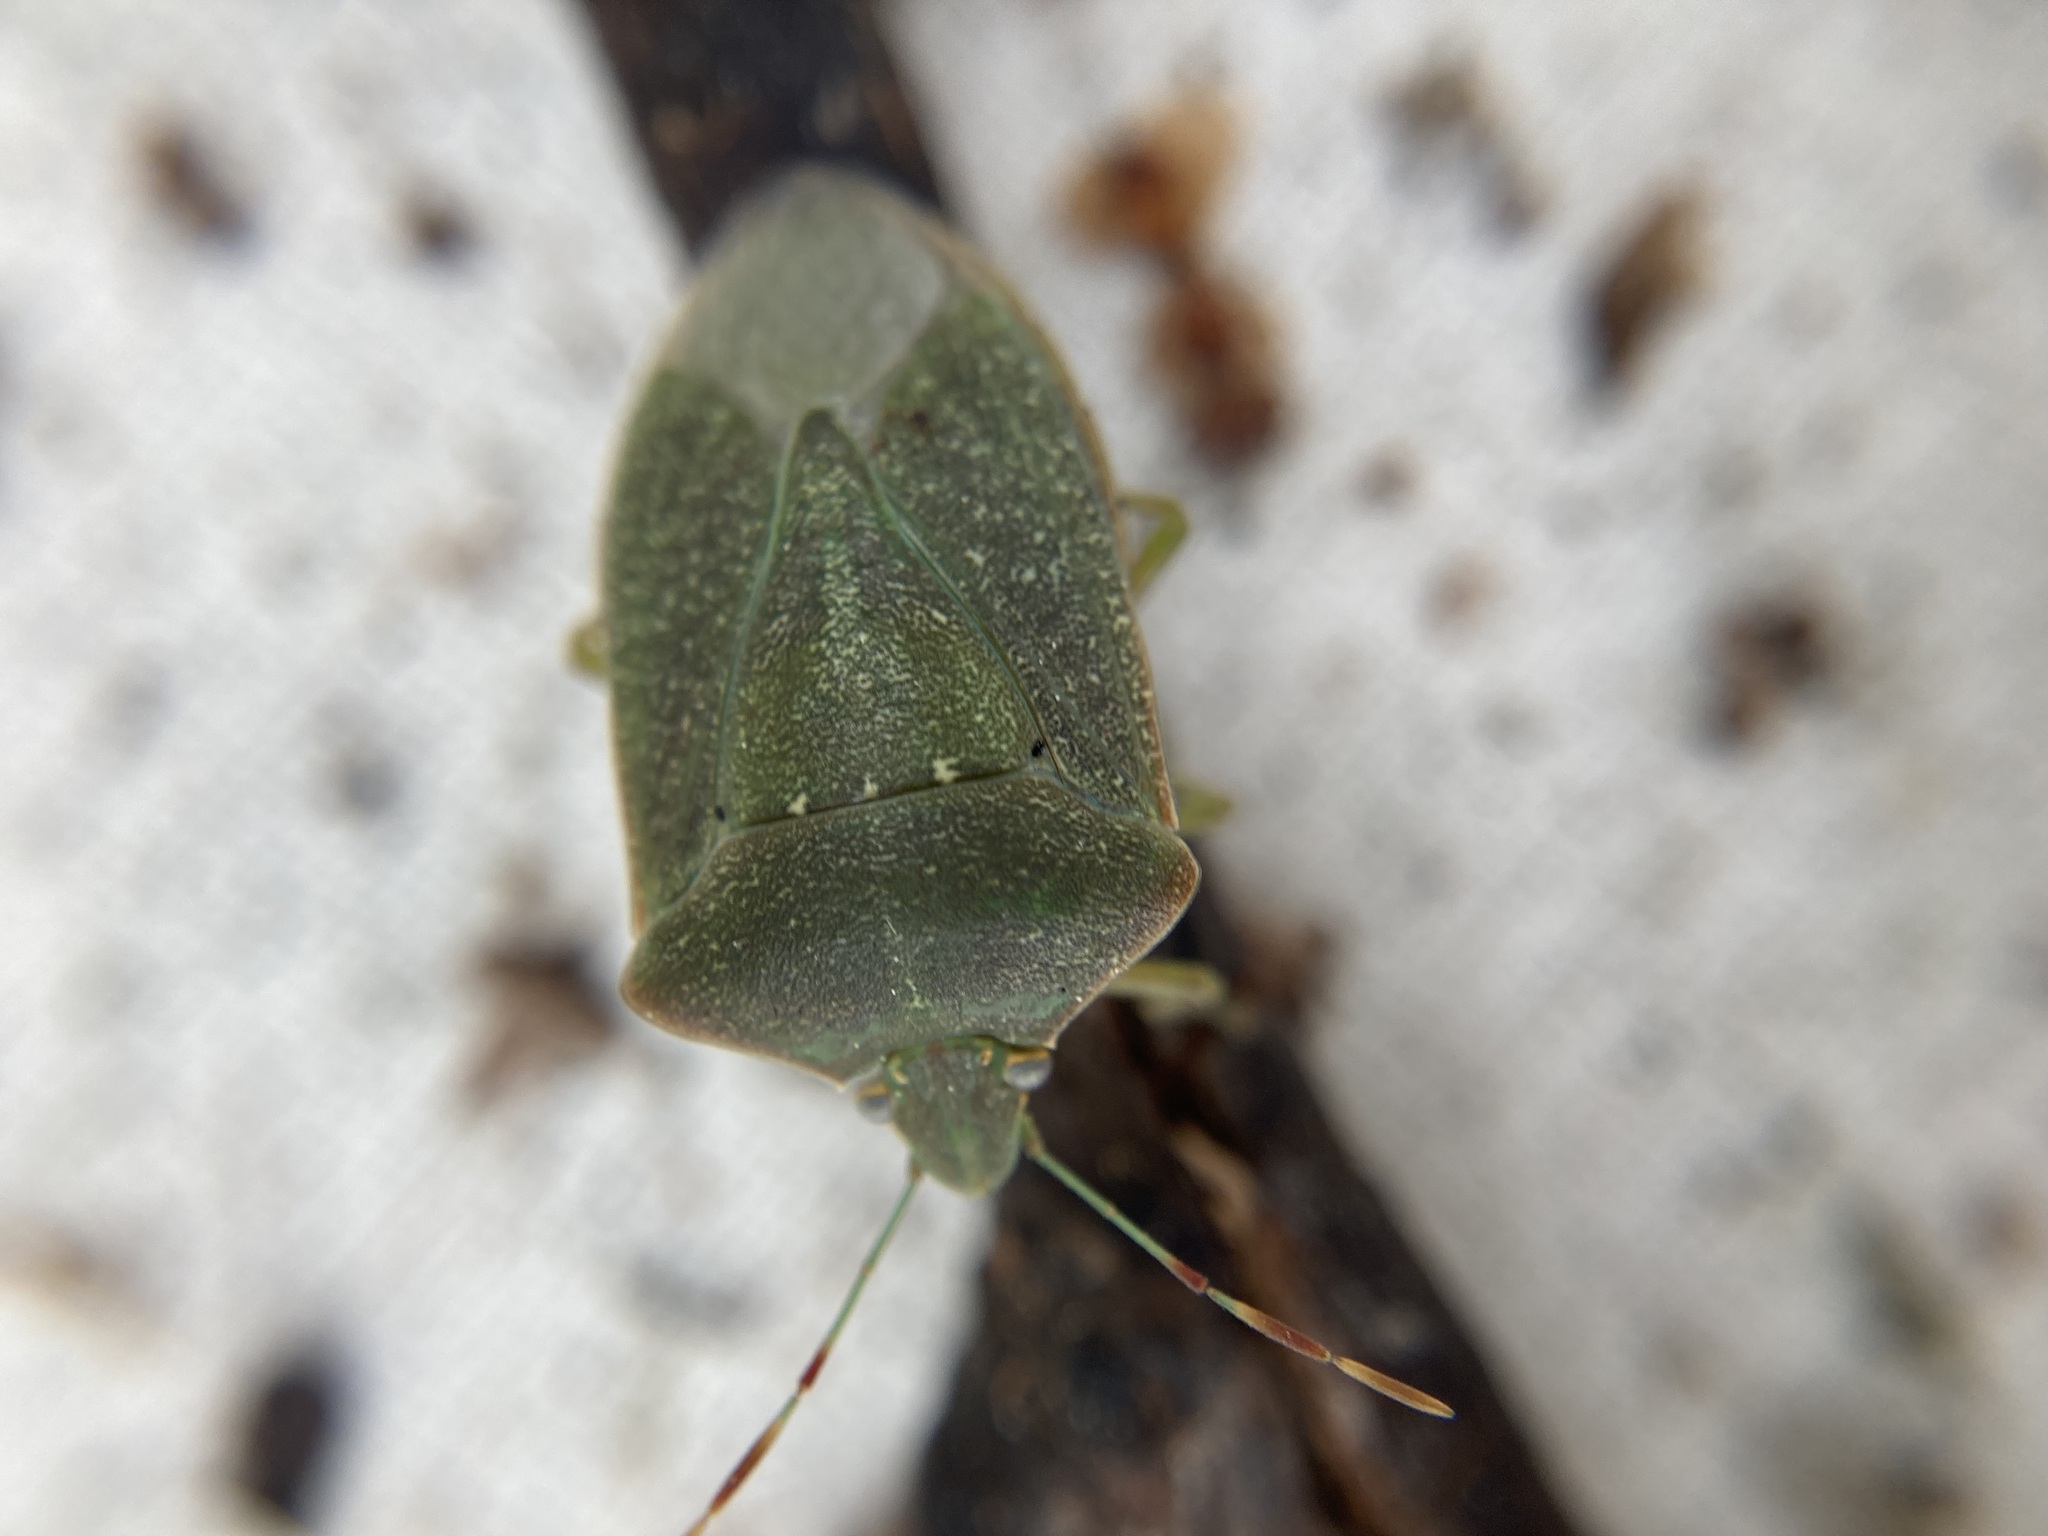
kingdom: Animalia
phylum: Arthropoda
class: Insecta
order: Hemiptera
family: Pentatomidae
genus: Nezara
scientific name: Nezara viridula
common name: Southern green stink bug
